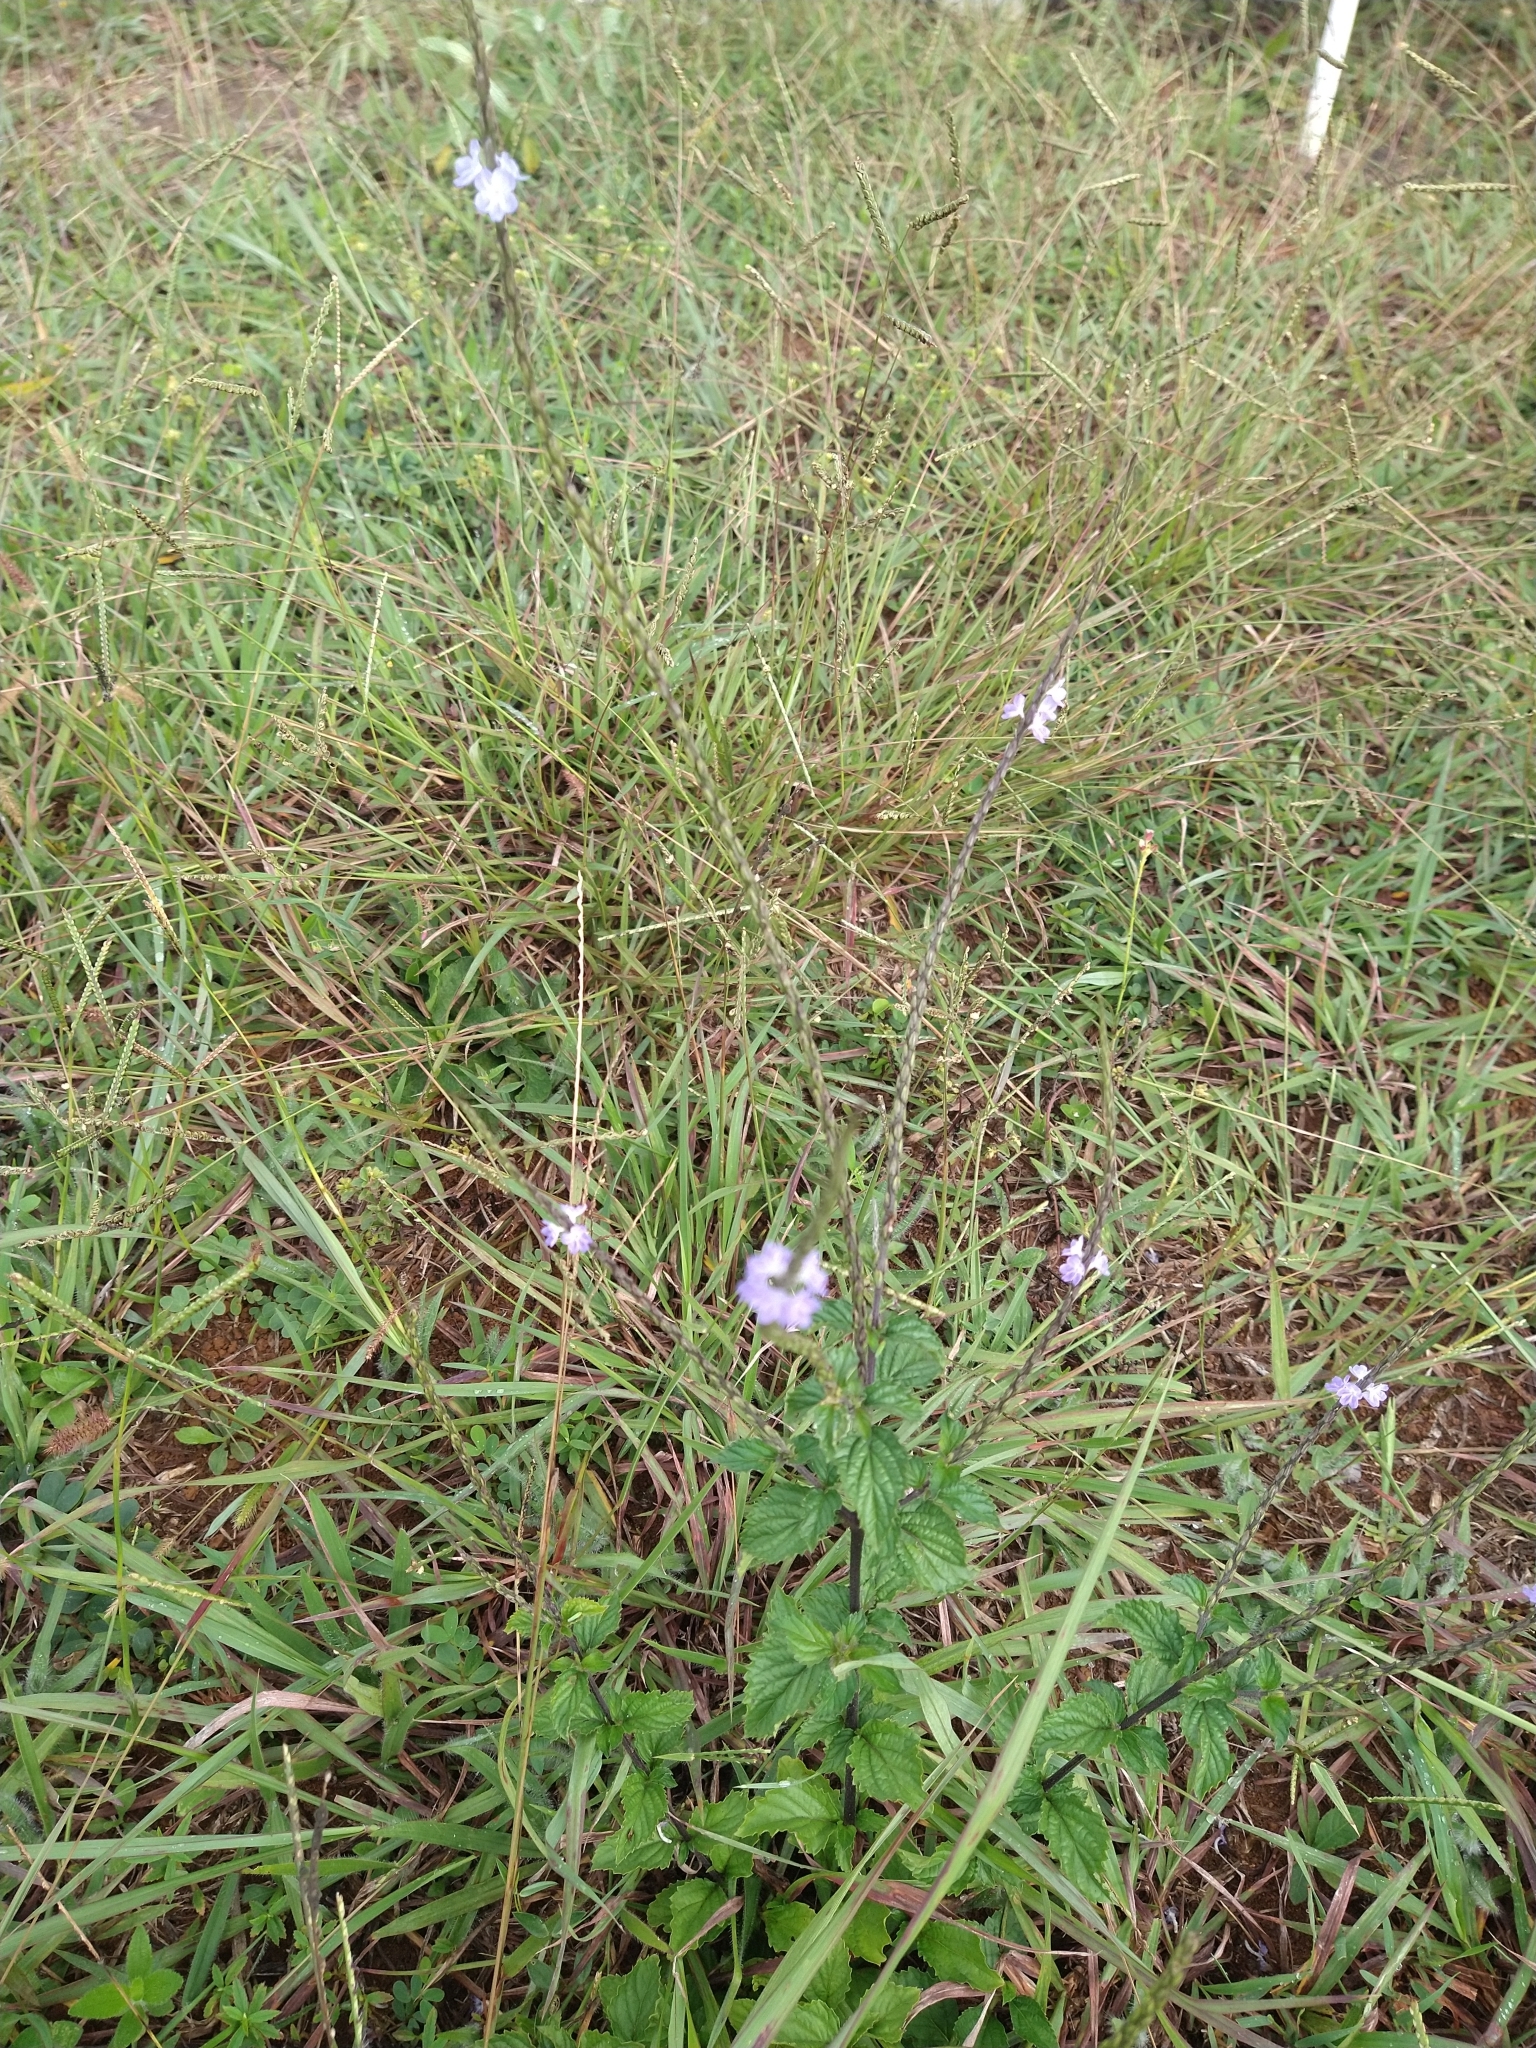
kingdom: Plantae
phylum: Tracheophyta
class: Magnoliopsida
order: Lamiales
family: Verbenaceae
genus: Stachytarpheta
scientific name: Stachytarpheta cayennensis
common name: Cayenne porterweed
